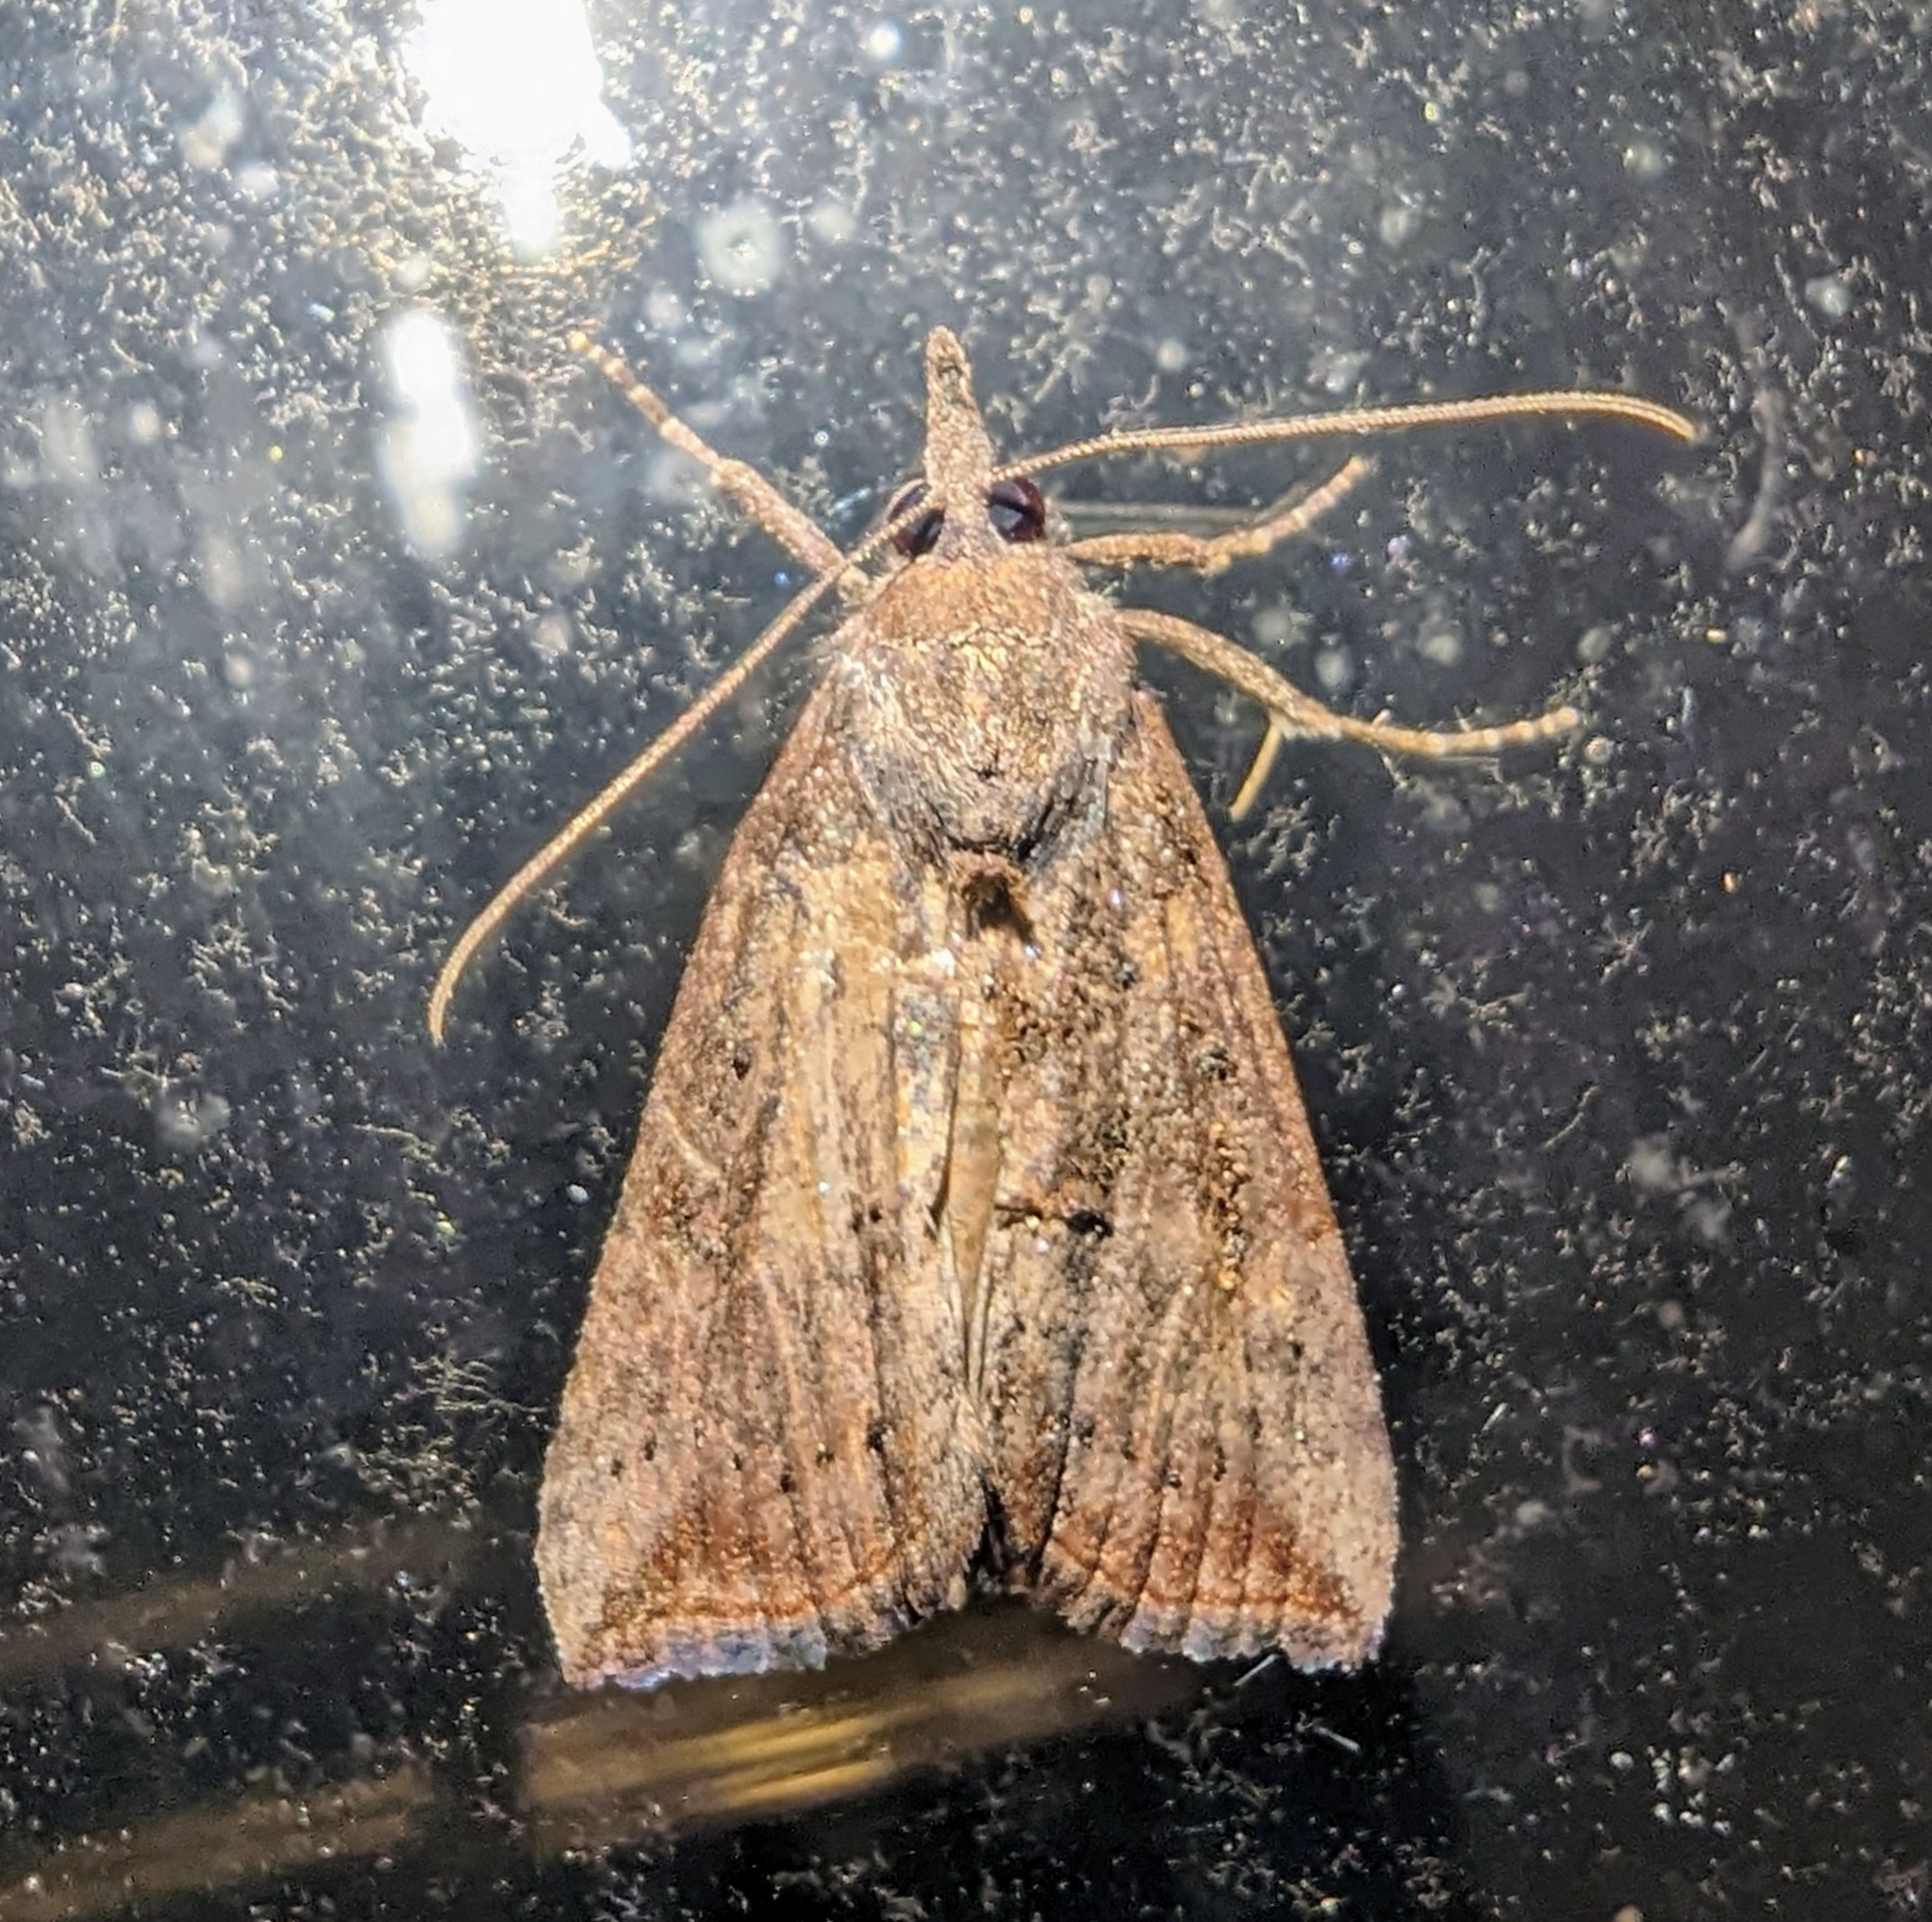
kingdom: Animalia
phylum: Arthropoda
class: Insecta
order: Lepidoptera
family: Erebidae
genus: Hypena
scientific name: Hypena scabra
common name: Green cloverworm
